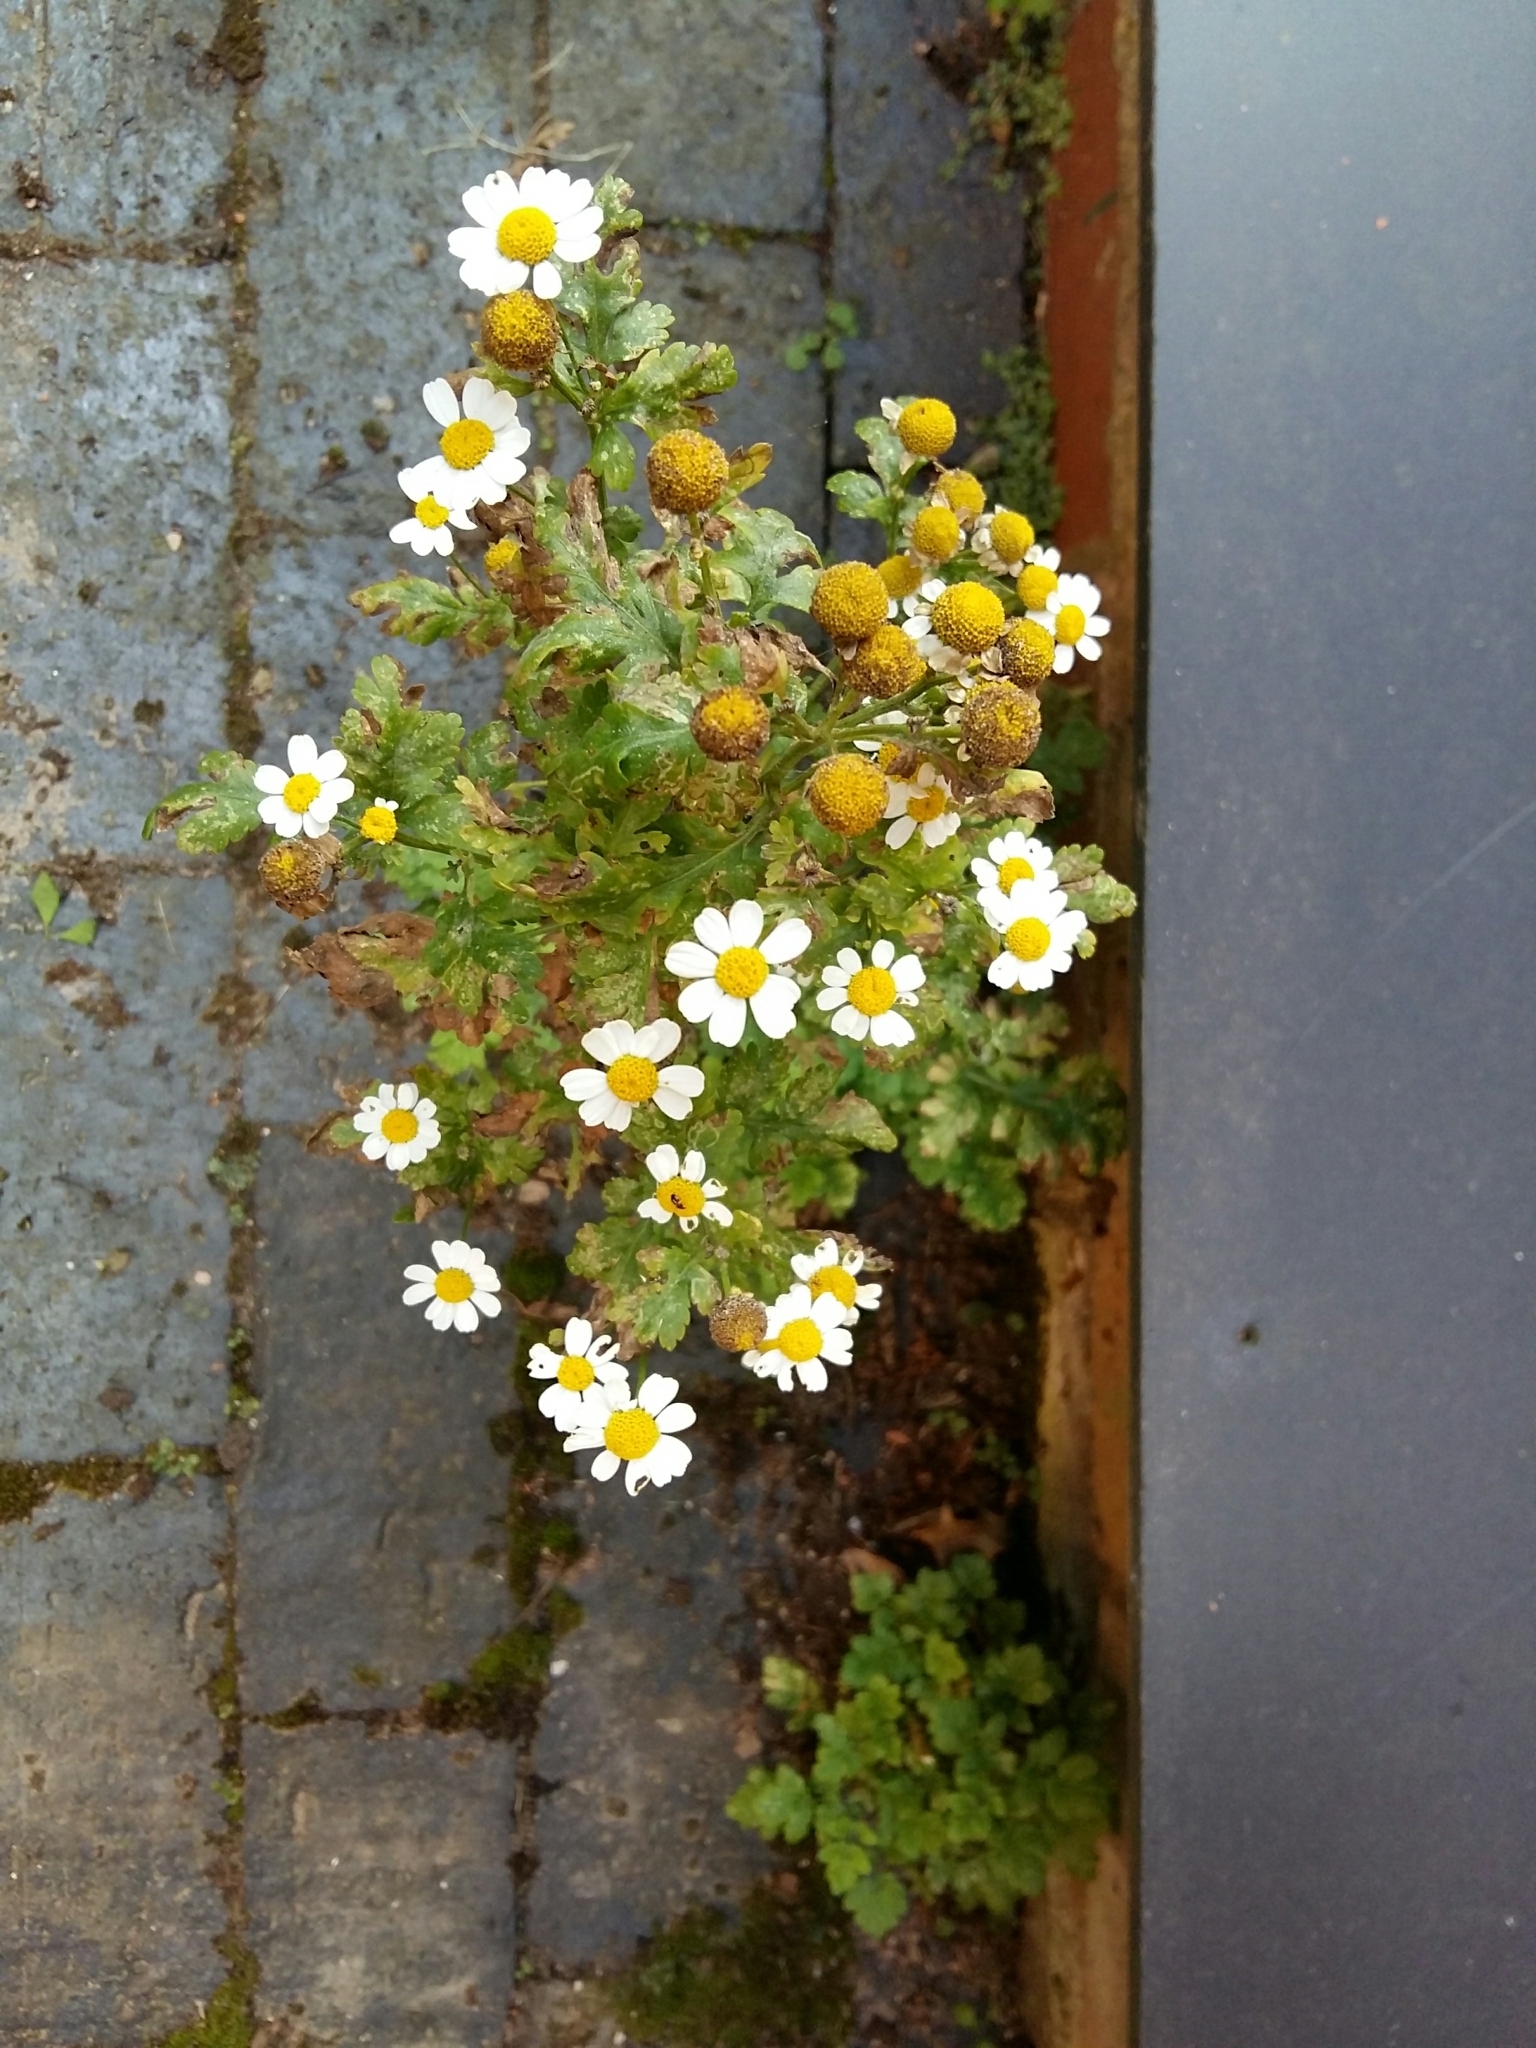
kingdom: Plantae
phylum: Tracheophyta
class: Magnoliopsida
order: Asterales
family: Asteraceae
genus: Tanacetum
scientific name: Tanacetum parthenium
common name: Feverfew
